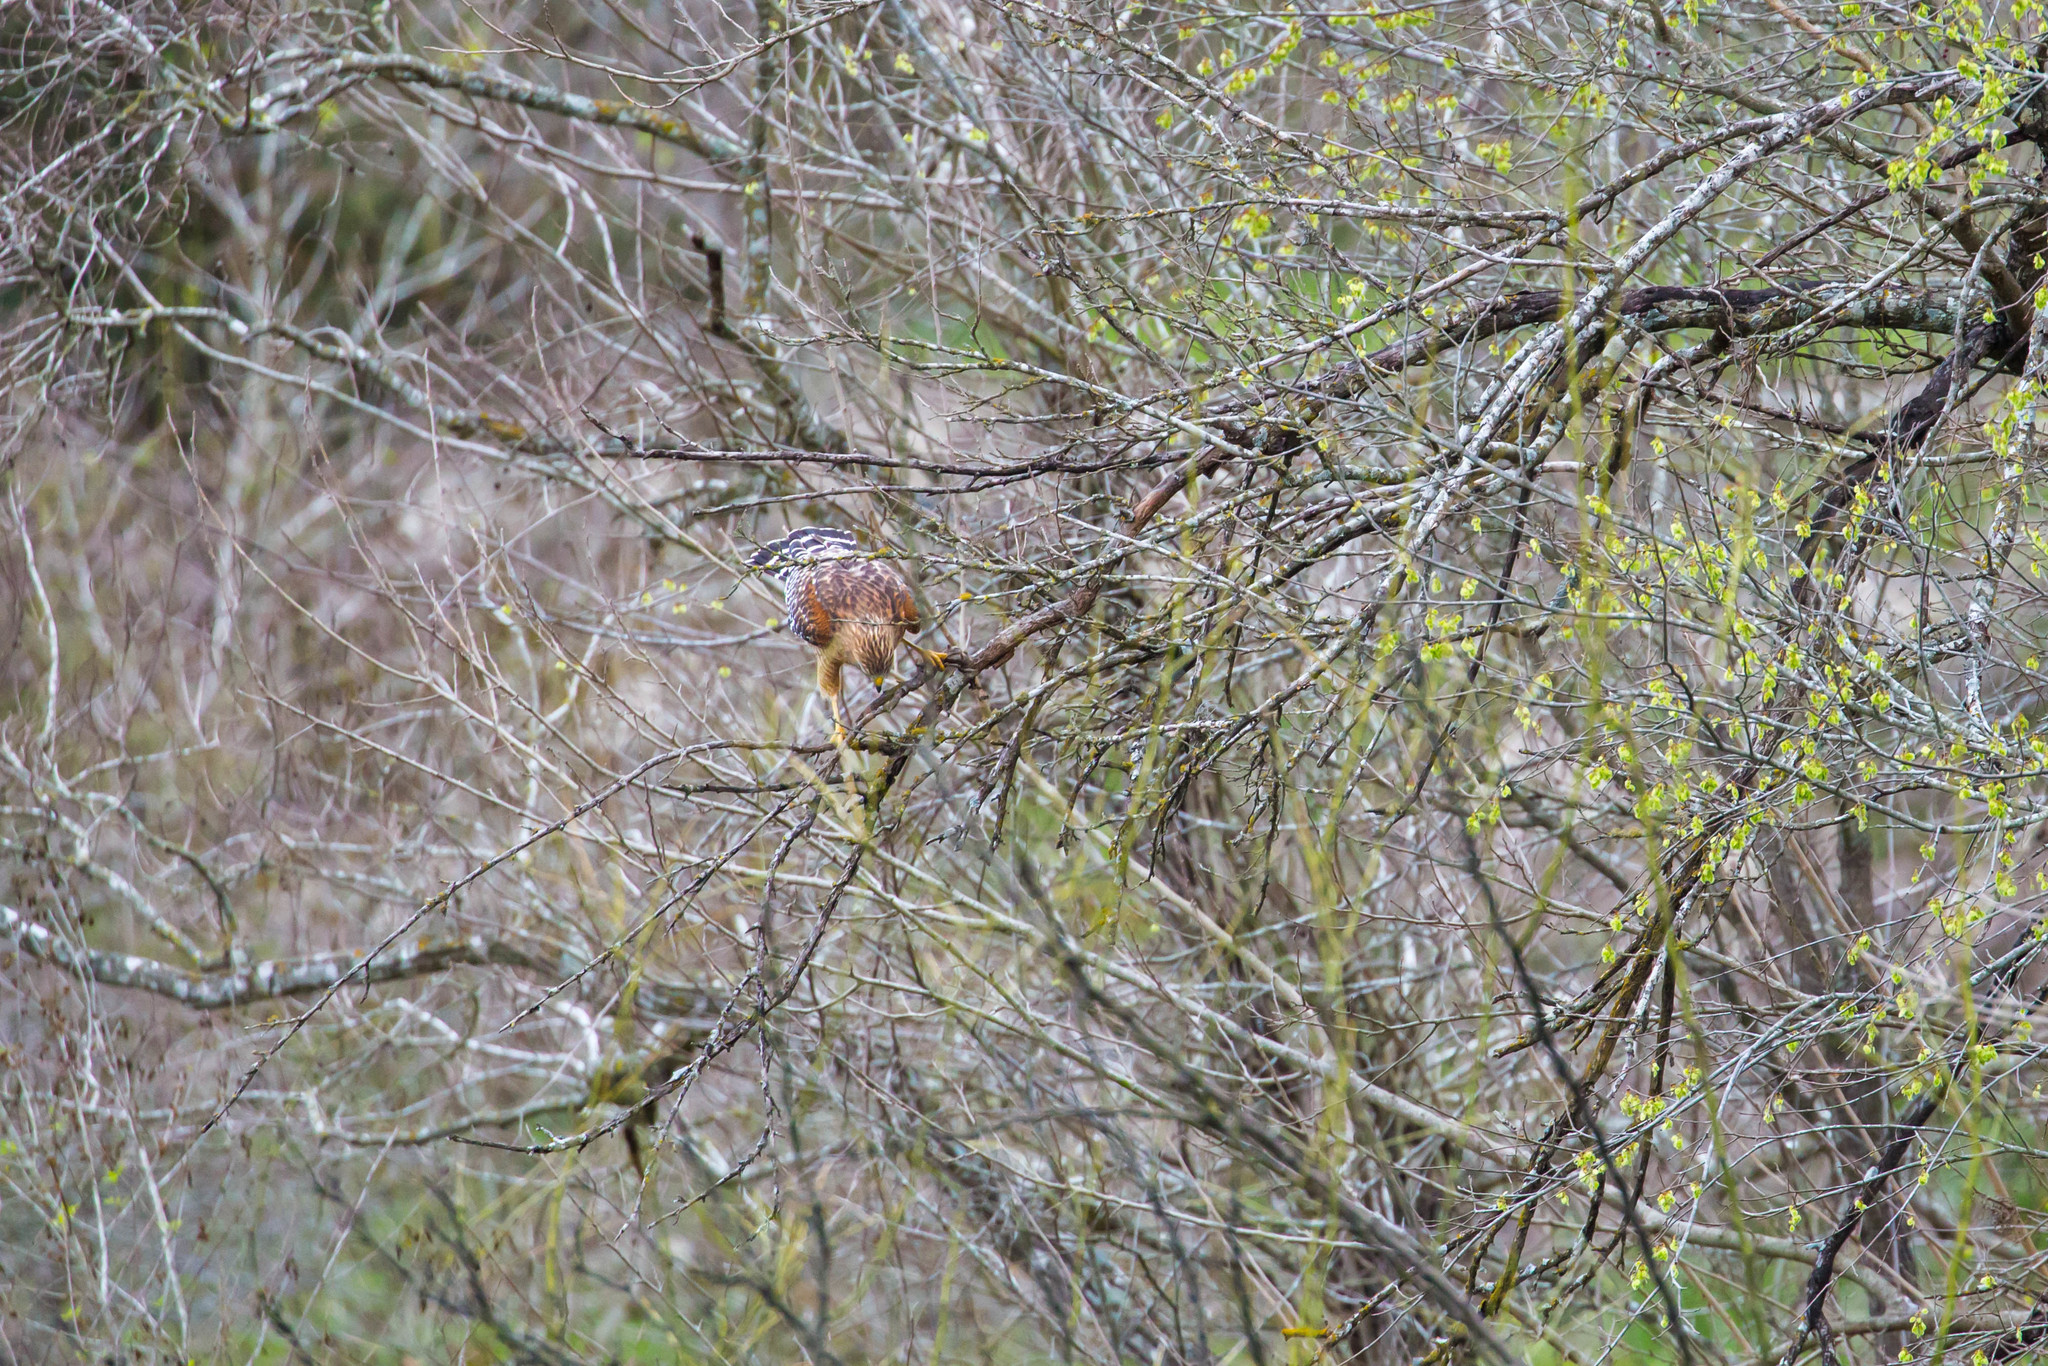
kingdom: Animalia
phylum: Chordata
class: Aves
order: Accipitriformes
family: Accipitridae
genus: Buteo
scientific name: Buteo lineatus
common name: Red-shouldered hawk
